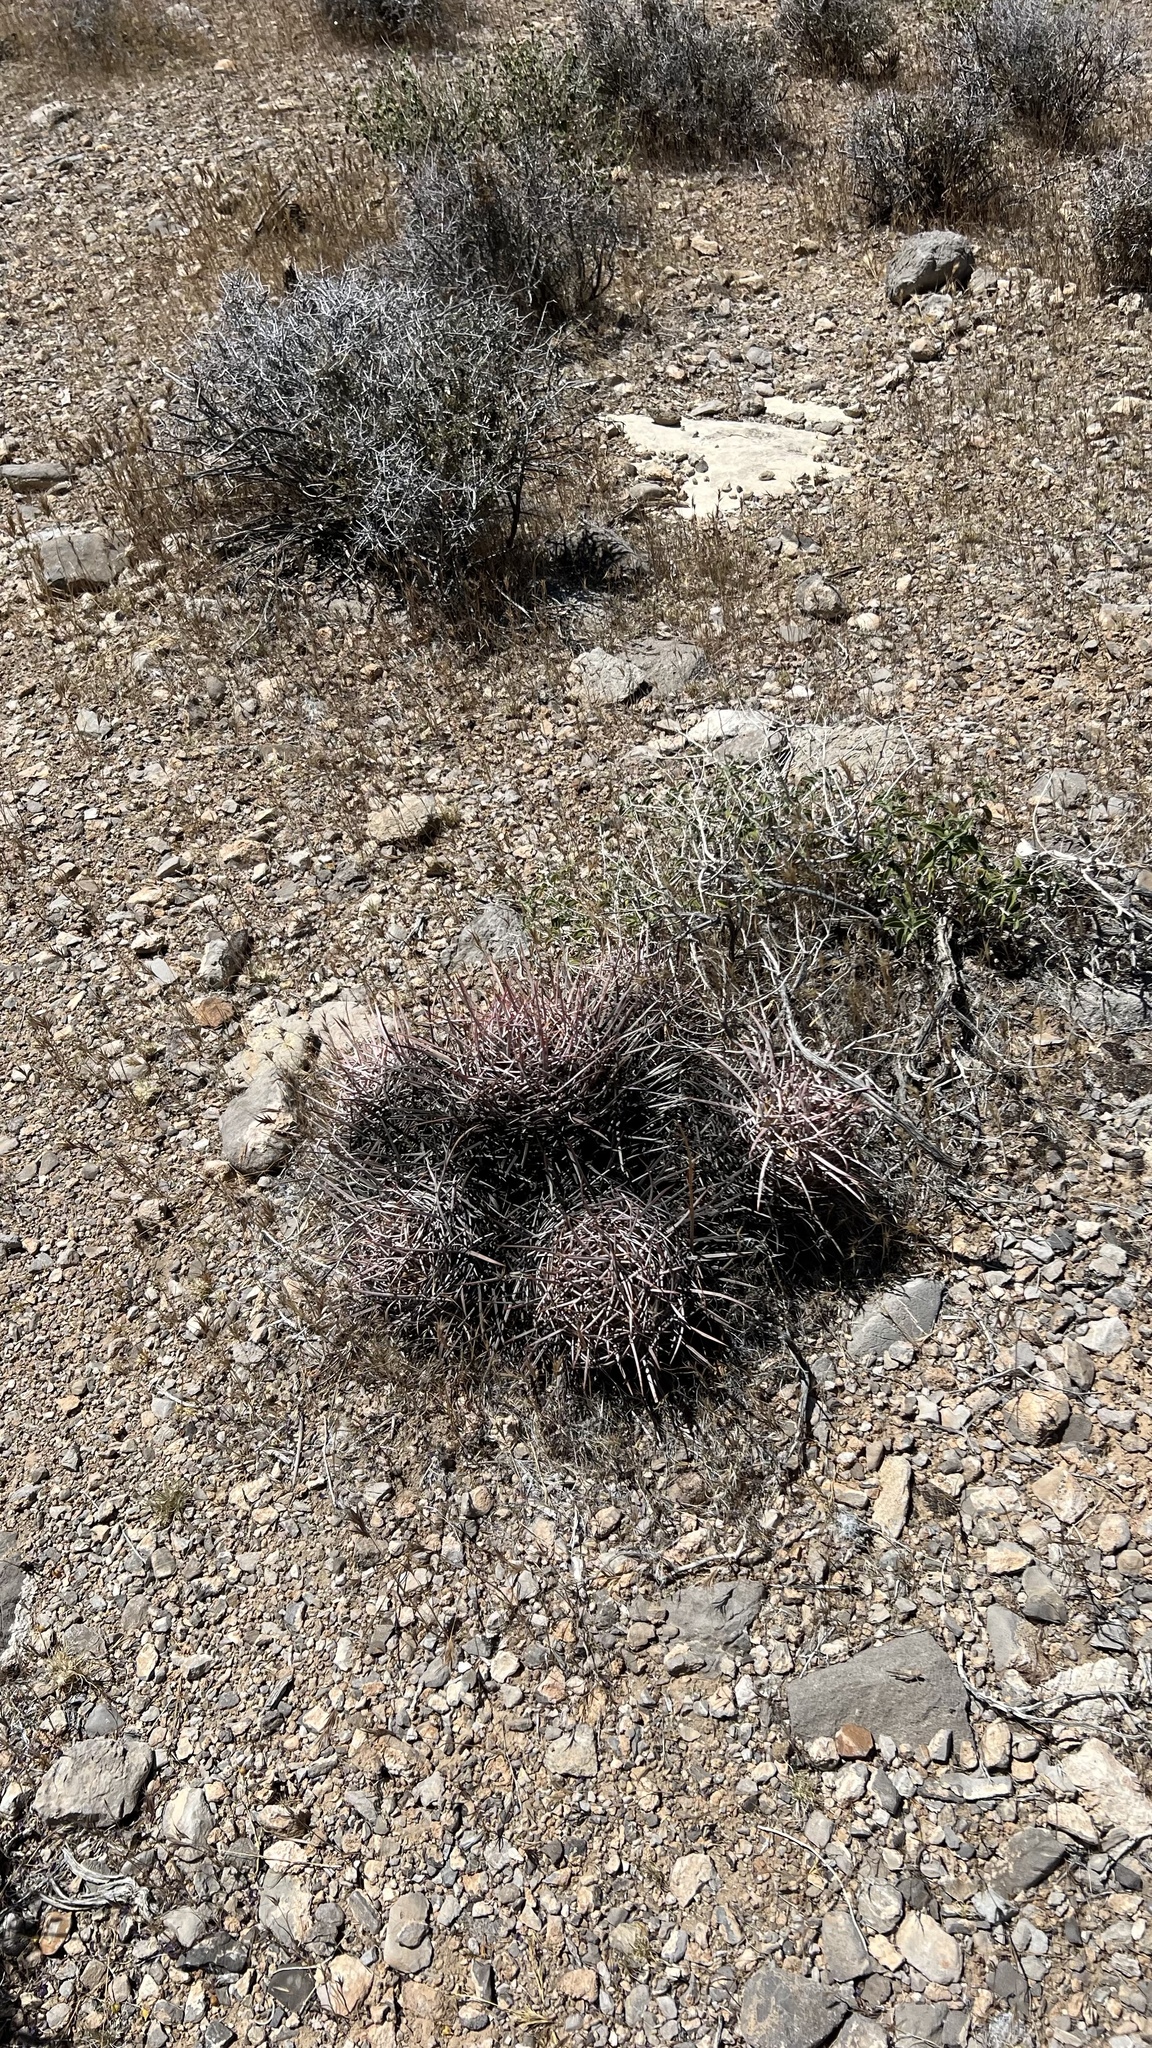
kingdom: Plantae
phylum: Tracheophyta
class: Magnoliopsida
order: Caryophyllales
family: Cactaceae
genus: Echinocactus
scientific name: Echinocactus polycephalus
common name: Cottontop cactus
